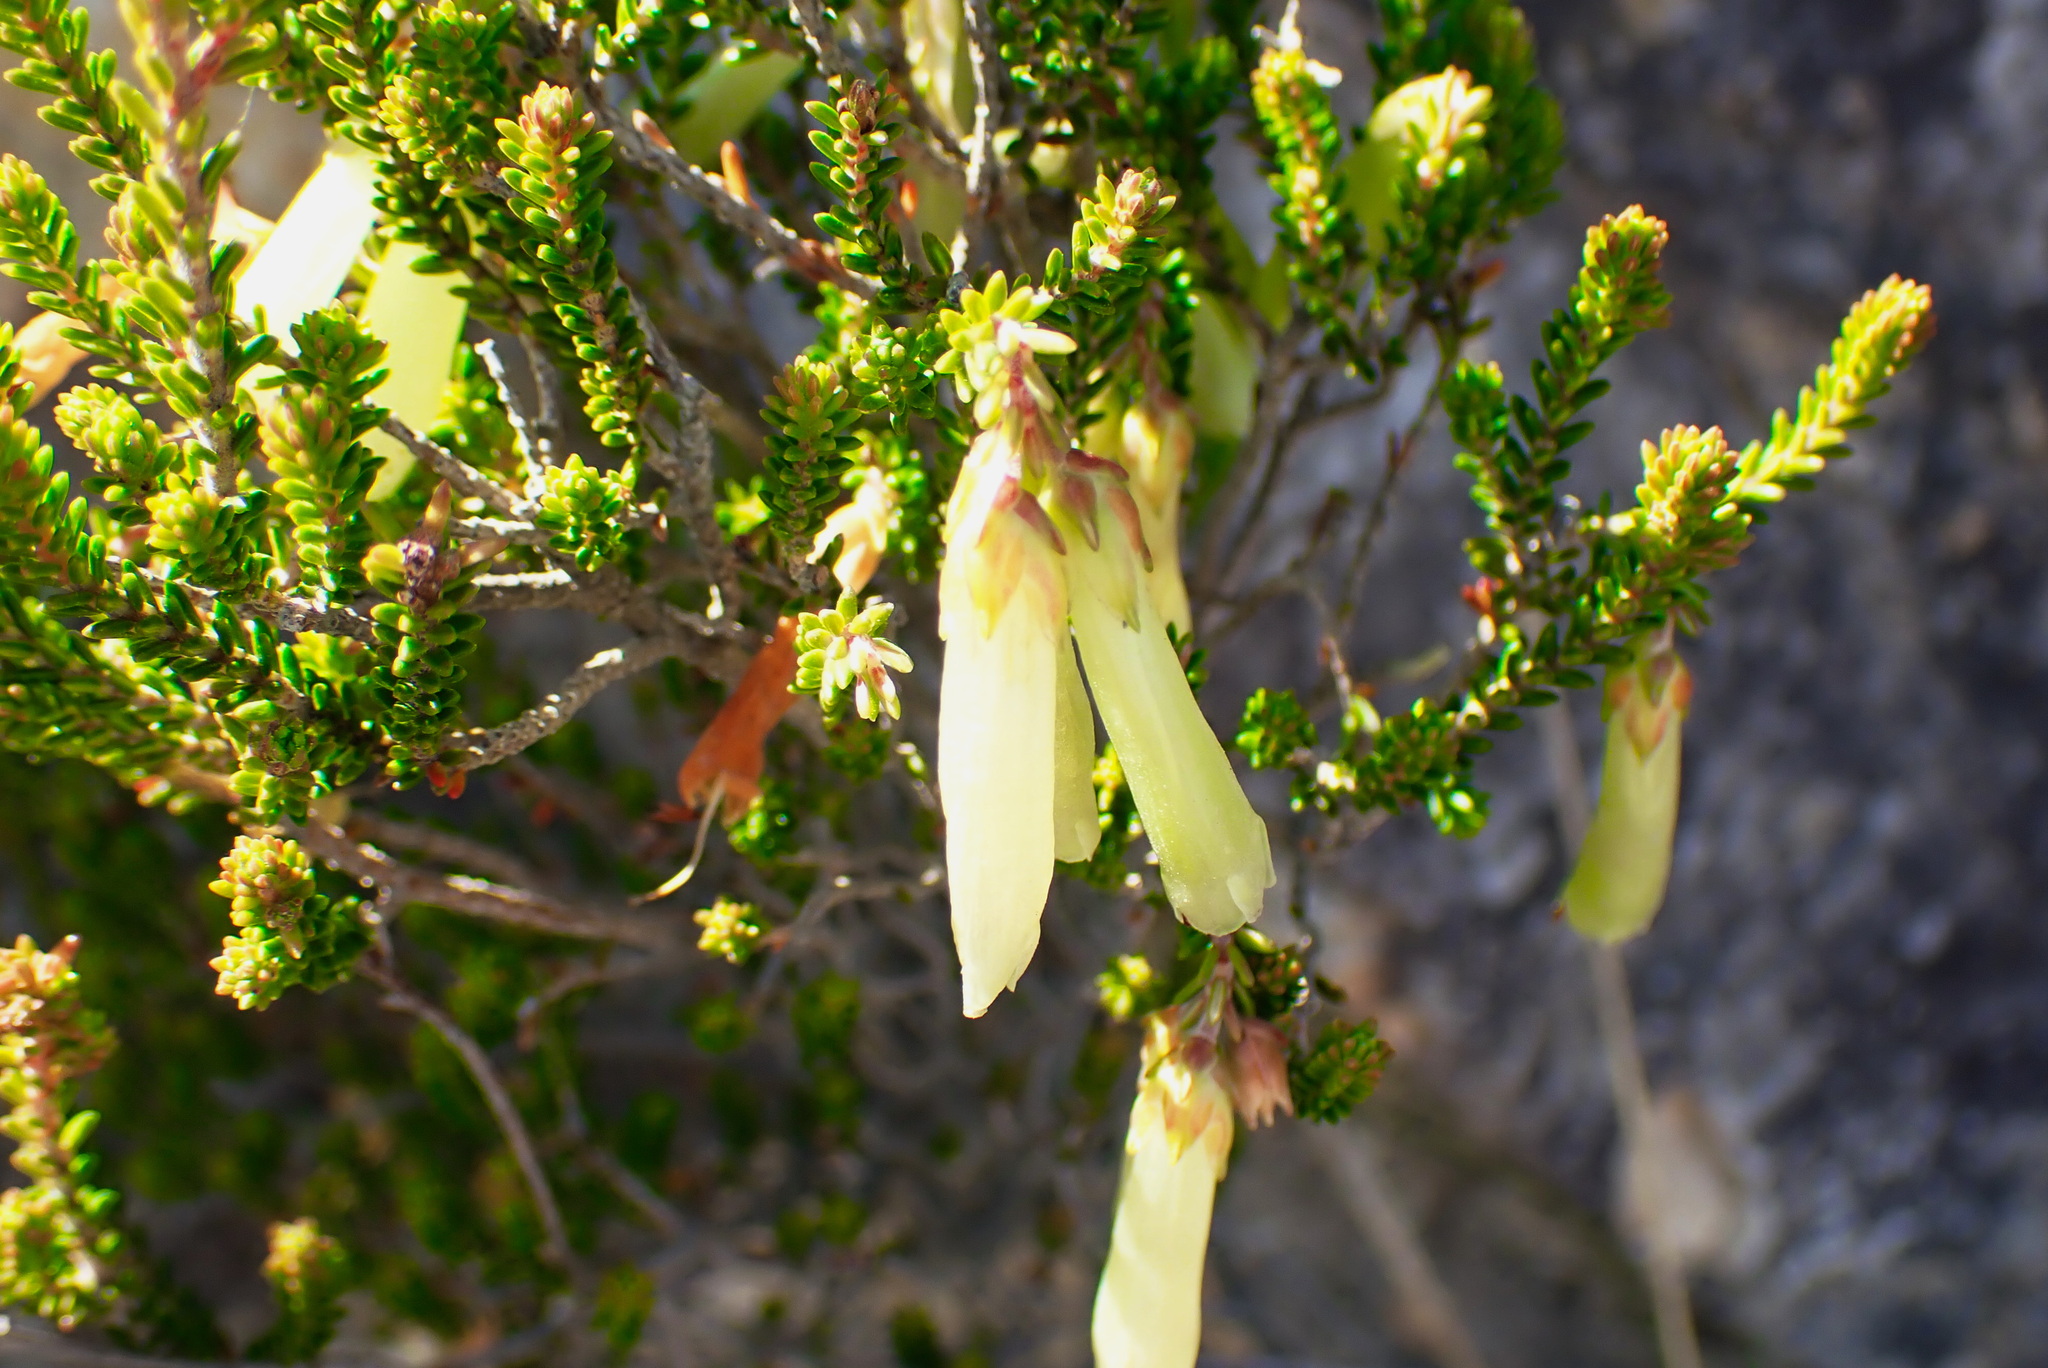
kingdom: Plantae
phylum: Tracheophyta
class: Magnoliopsida
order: Ericales
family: Ericaceae
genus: Erica
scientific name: Erica viridiflora
